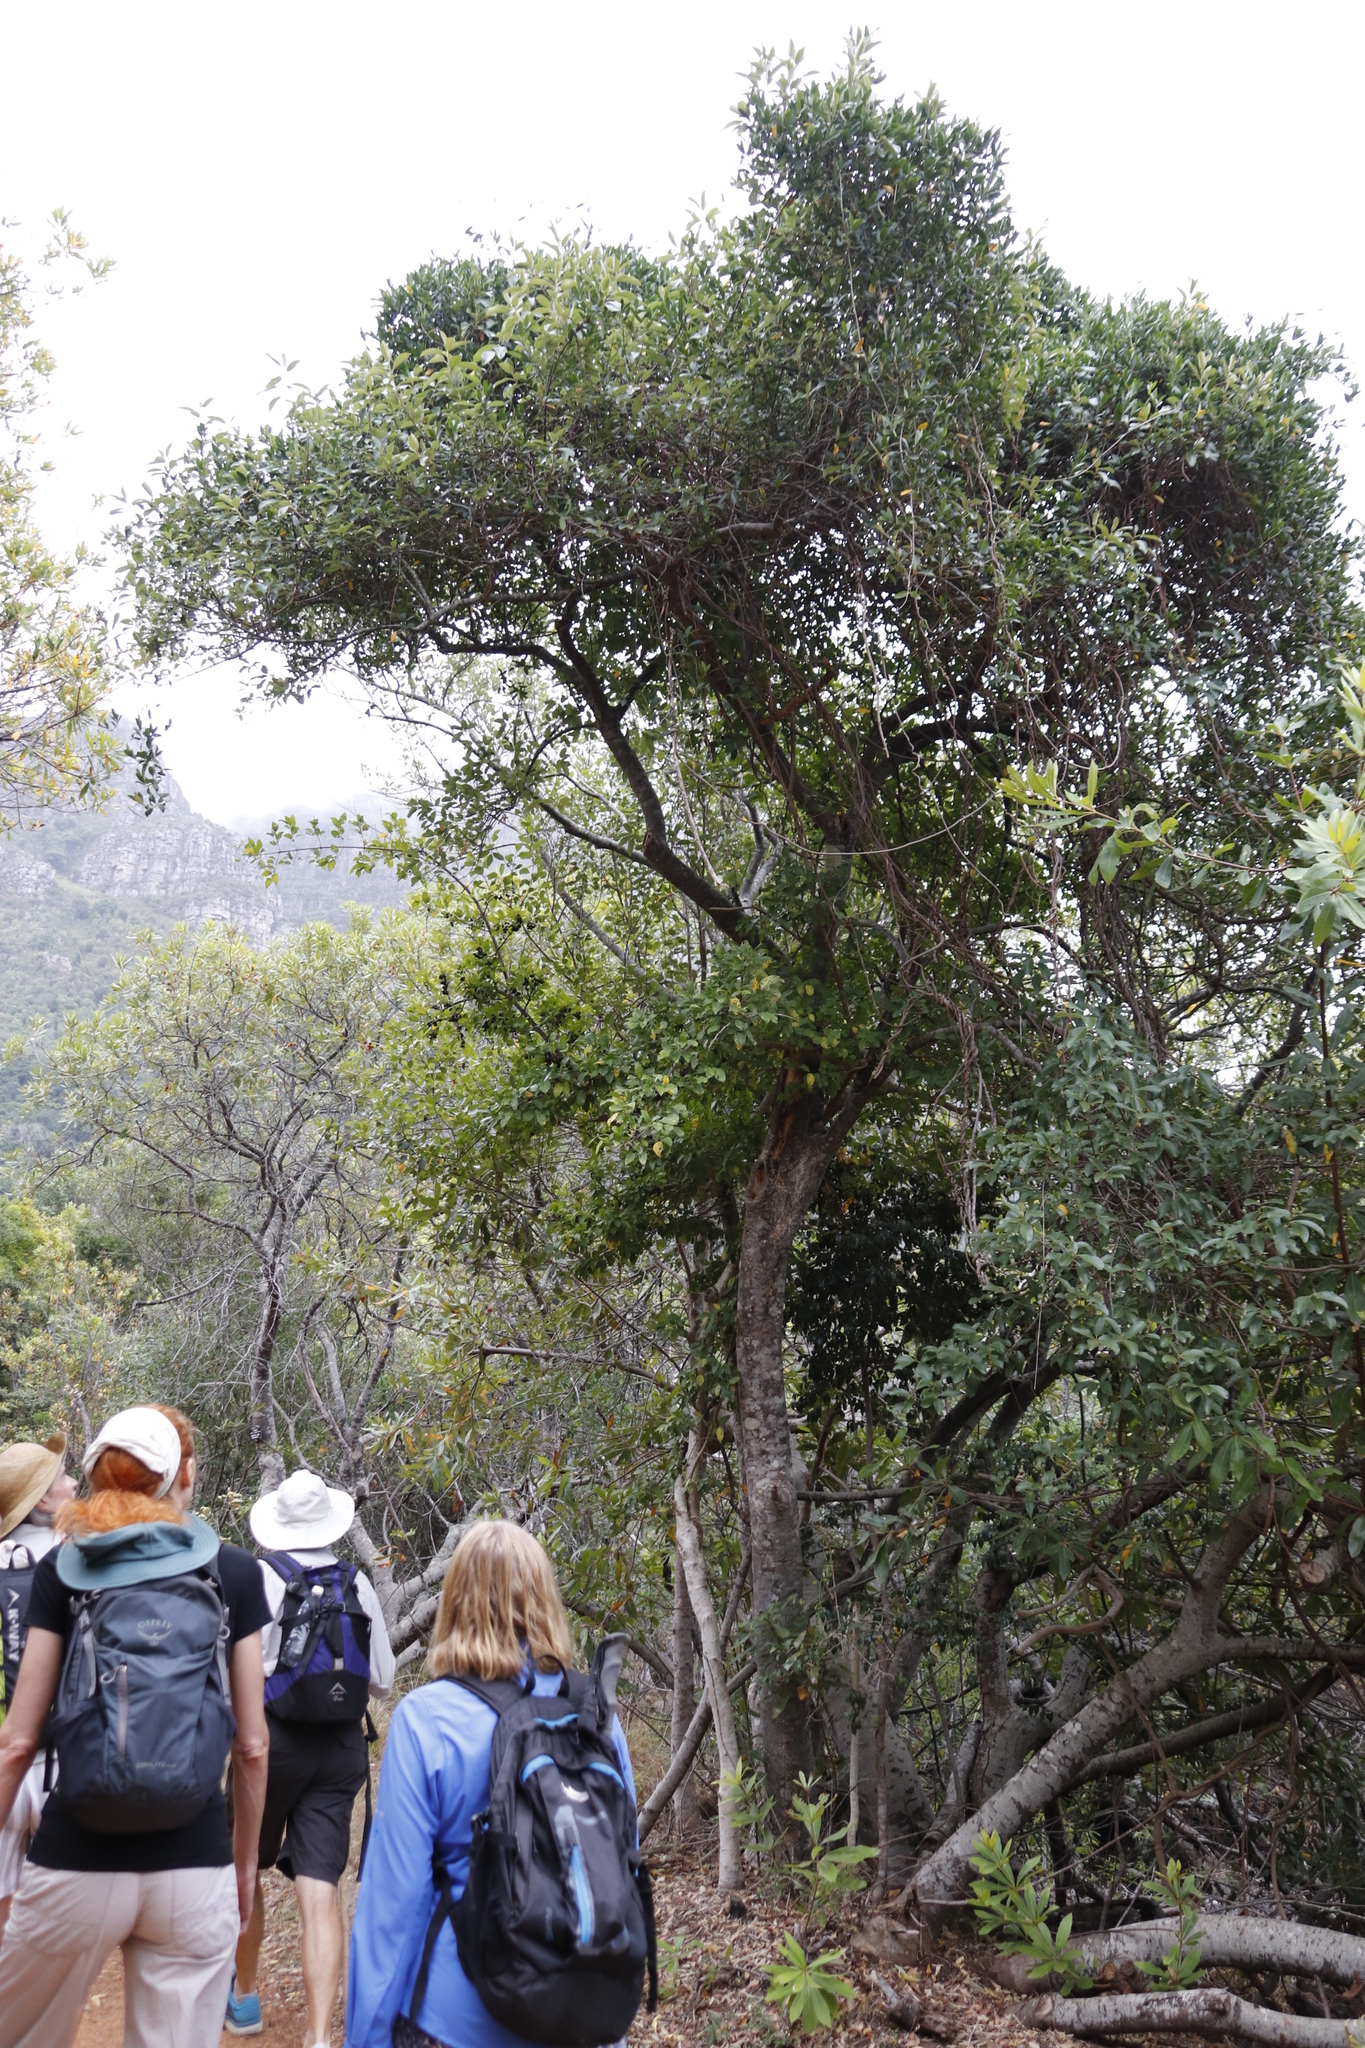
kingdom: Plantae
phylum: Tracheophyta
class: Magnoliopsida
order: Gentianales
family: Rubiaceae
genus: Canthium
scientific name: Canthium inerme
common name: Unarmed turkey-berry
